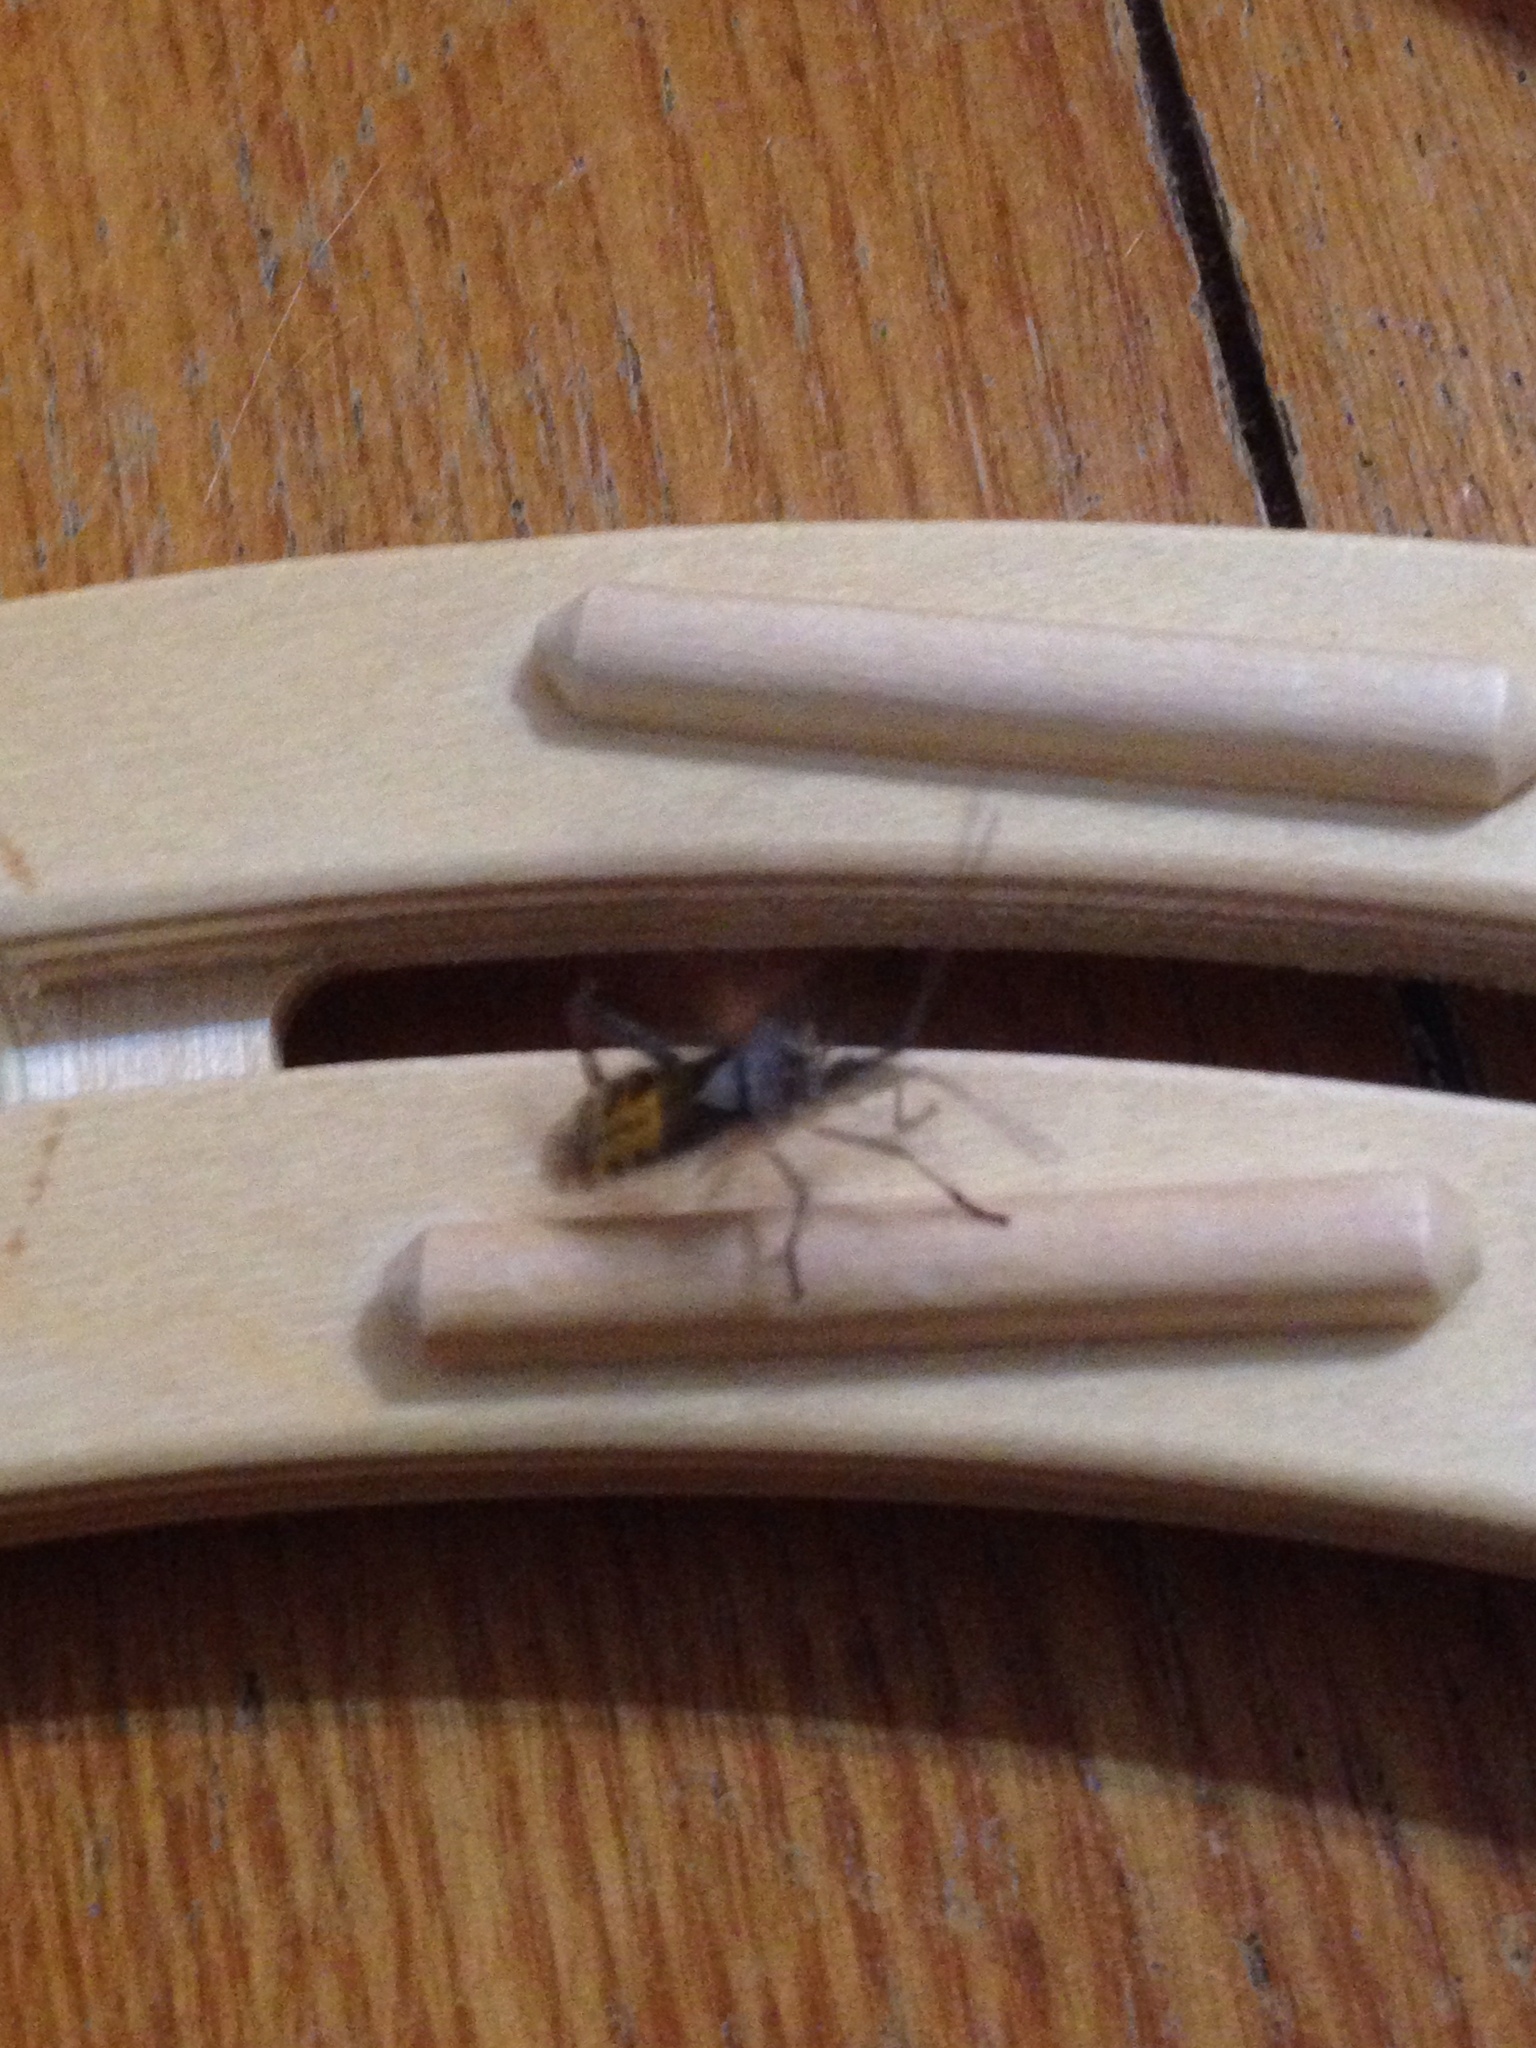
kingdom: Animalia
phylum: Arthropoda
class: Insecta
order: Hemiptera
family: Coreidae
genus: Leptoglossus
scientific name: Leptoglossus occidentalis
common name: Western conifer-seed bug
